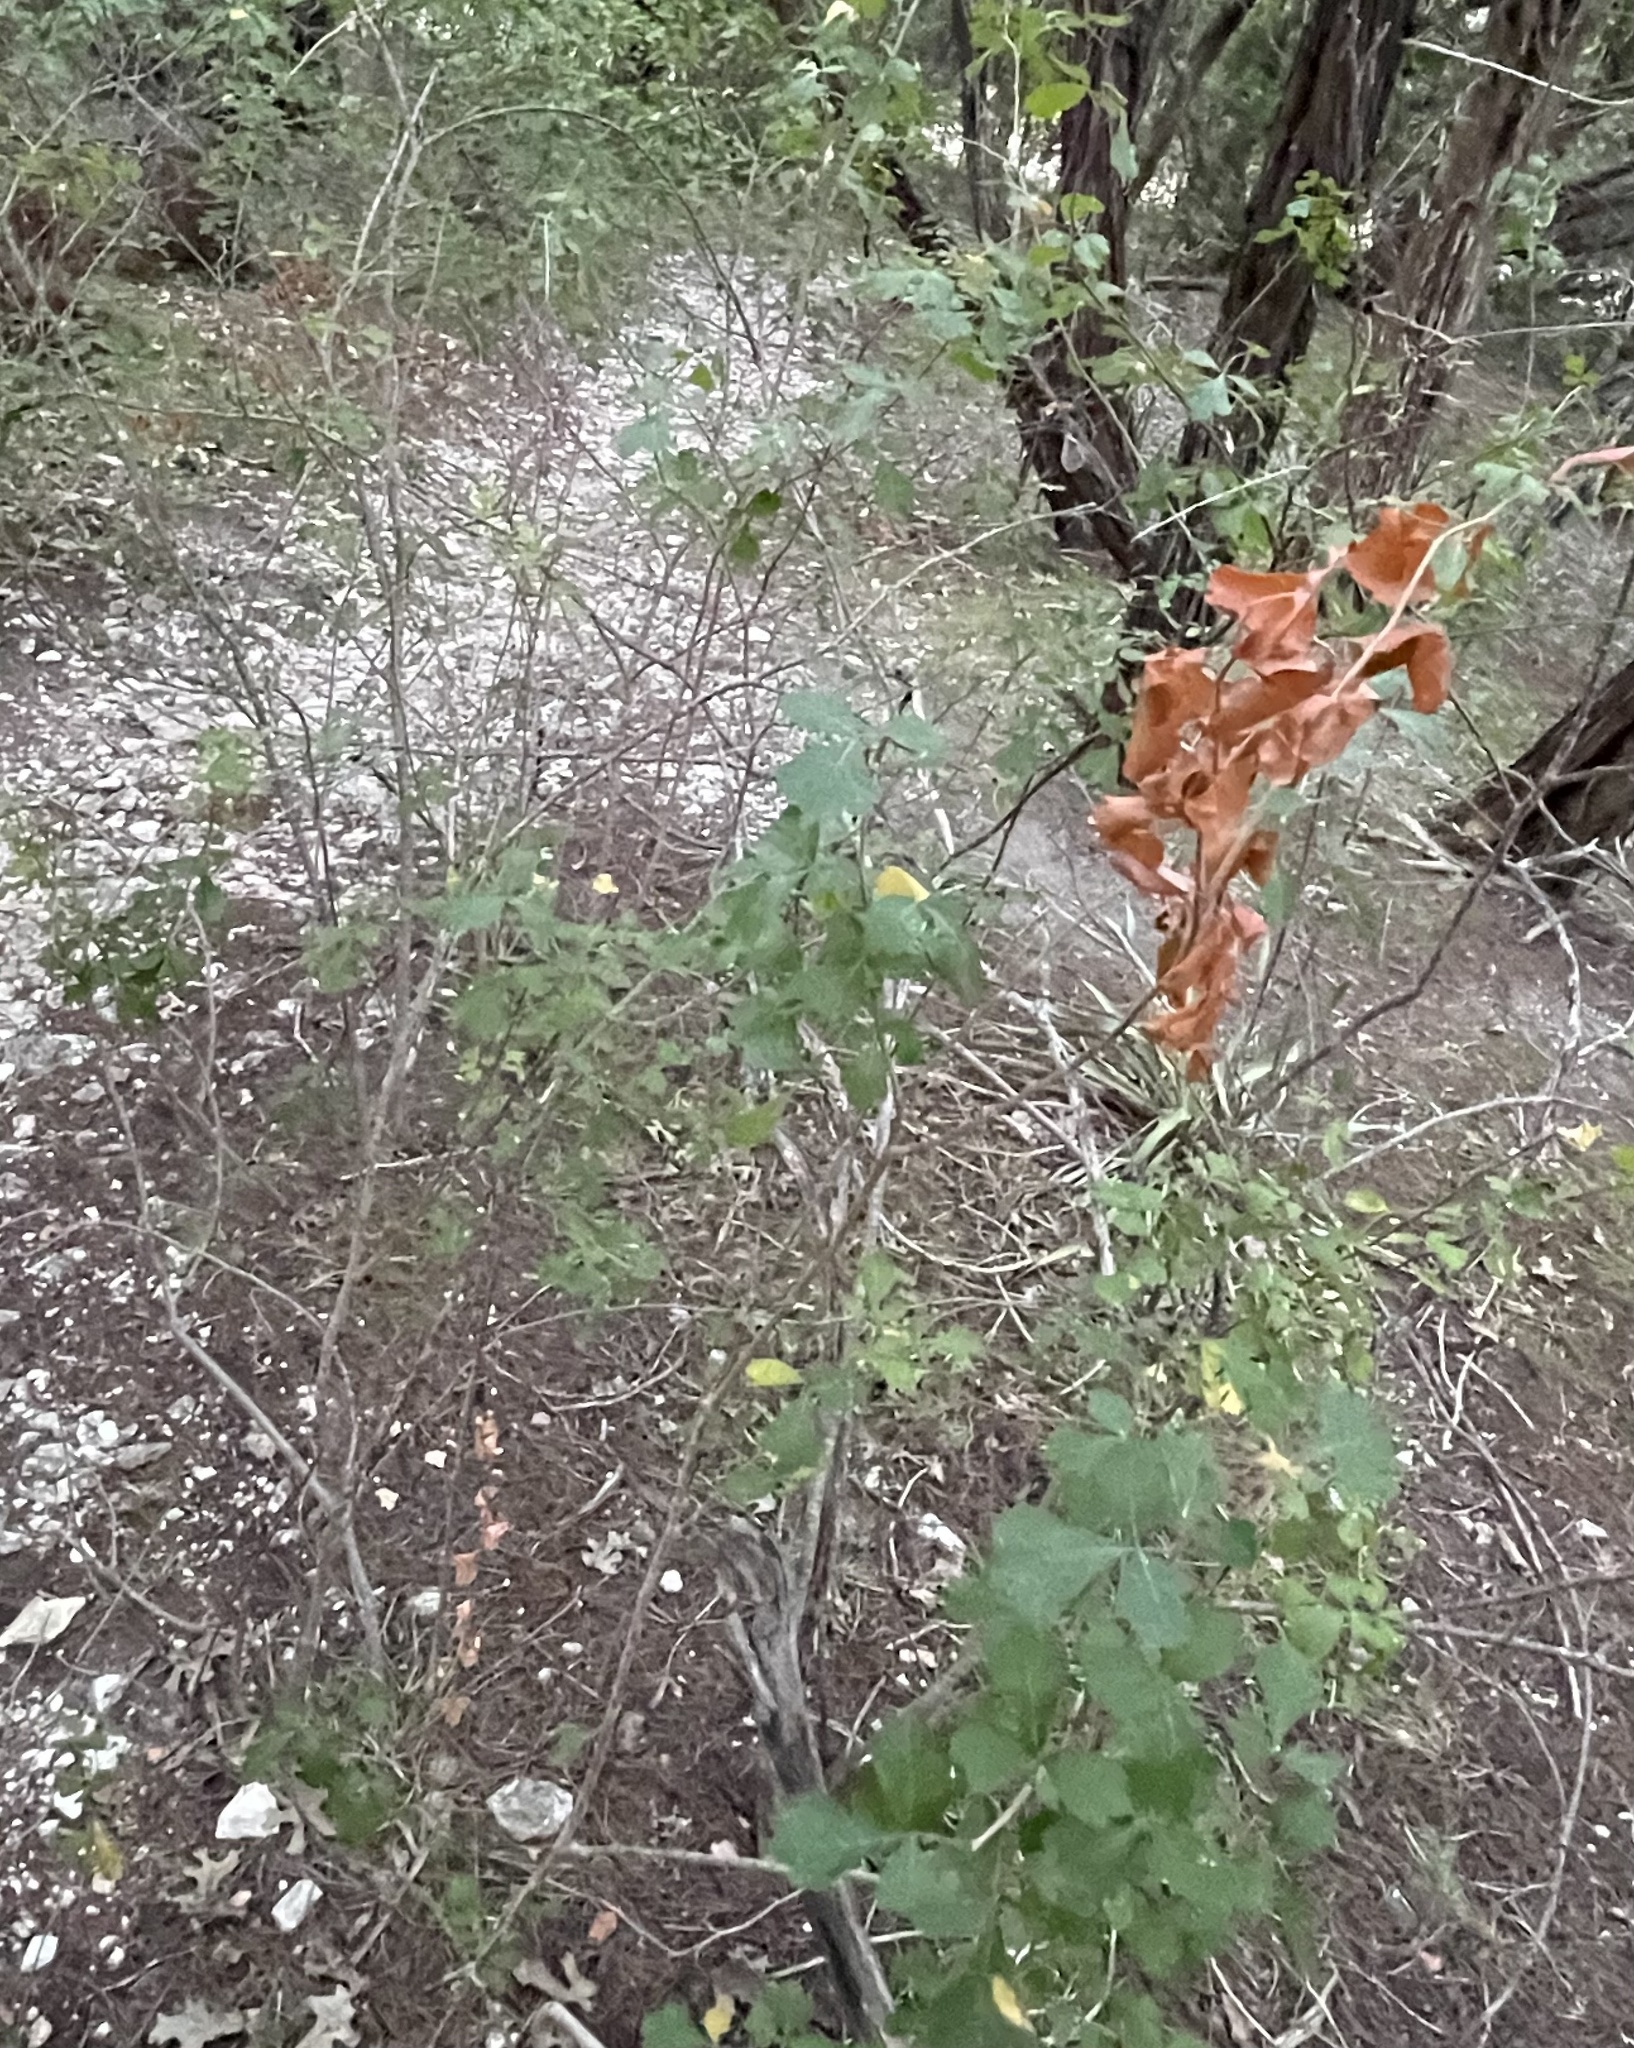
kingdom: Plantae
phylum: Tracheophyta
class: Magnoliopsida
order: Sapindales
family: Anacardiaceae
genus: Rhus
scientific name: Rhus aromatica
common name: Aromatic sumac
